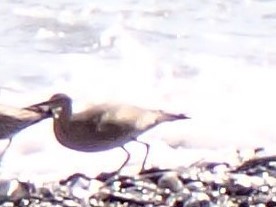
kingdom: Animalia
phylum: Chordata
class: Aves
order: Charadriiformes
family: Scolopacidae
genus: Numenius
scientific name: Numenius phaeopus
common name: Whimbrel
